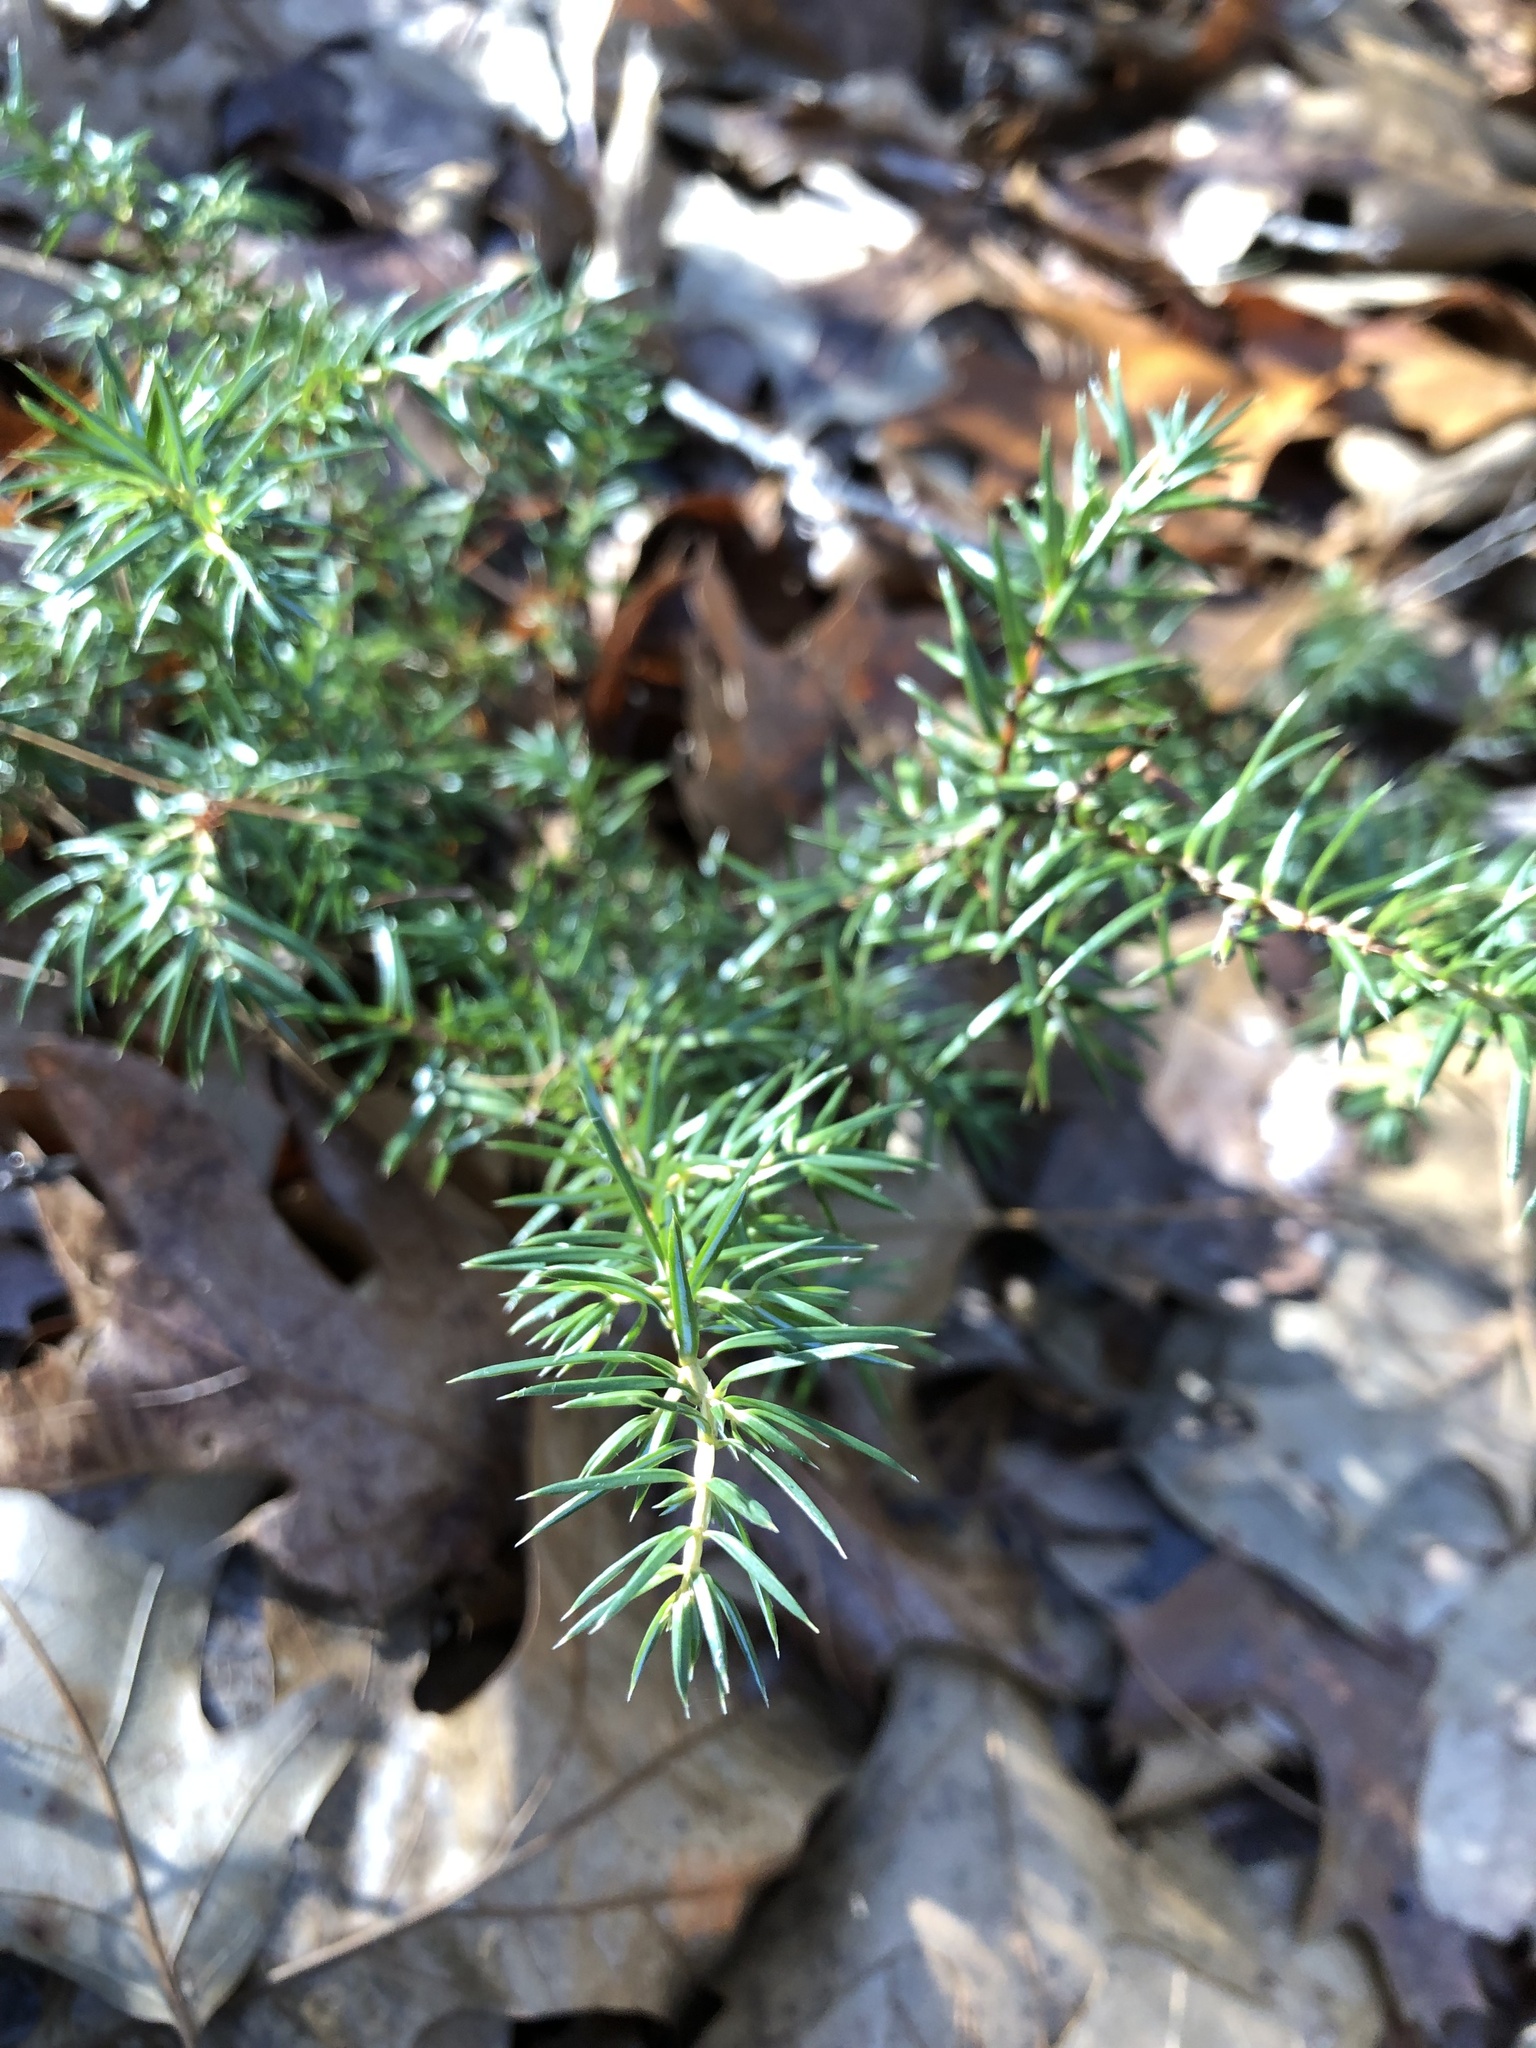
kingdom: Plantae
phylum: Tracheophyta
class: Pinopsida
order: Pinales
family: Cupressaceae
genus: Juniperus
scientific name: Juniperus communis
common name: Common juniper
